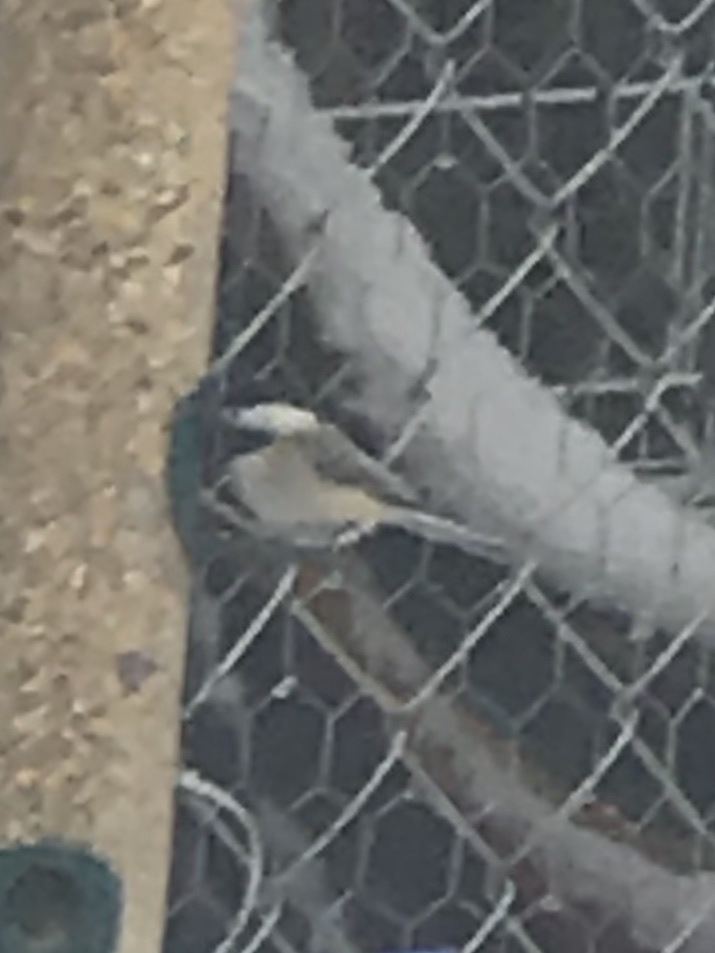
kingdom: Animalia
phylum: Chordata
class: Aves
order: Passeriformes
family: Paridae
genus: Poecile
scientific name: Poecile carolinensis
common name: Carolina chickadee
